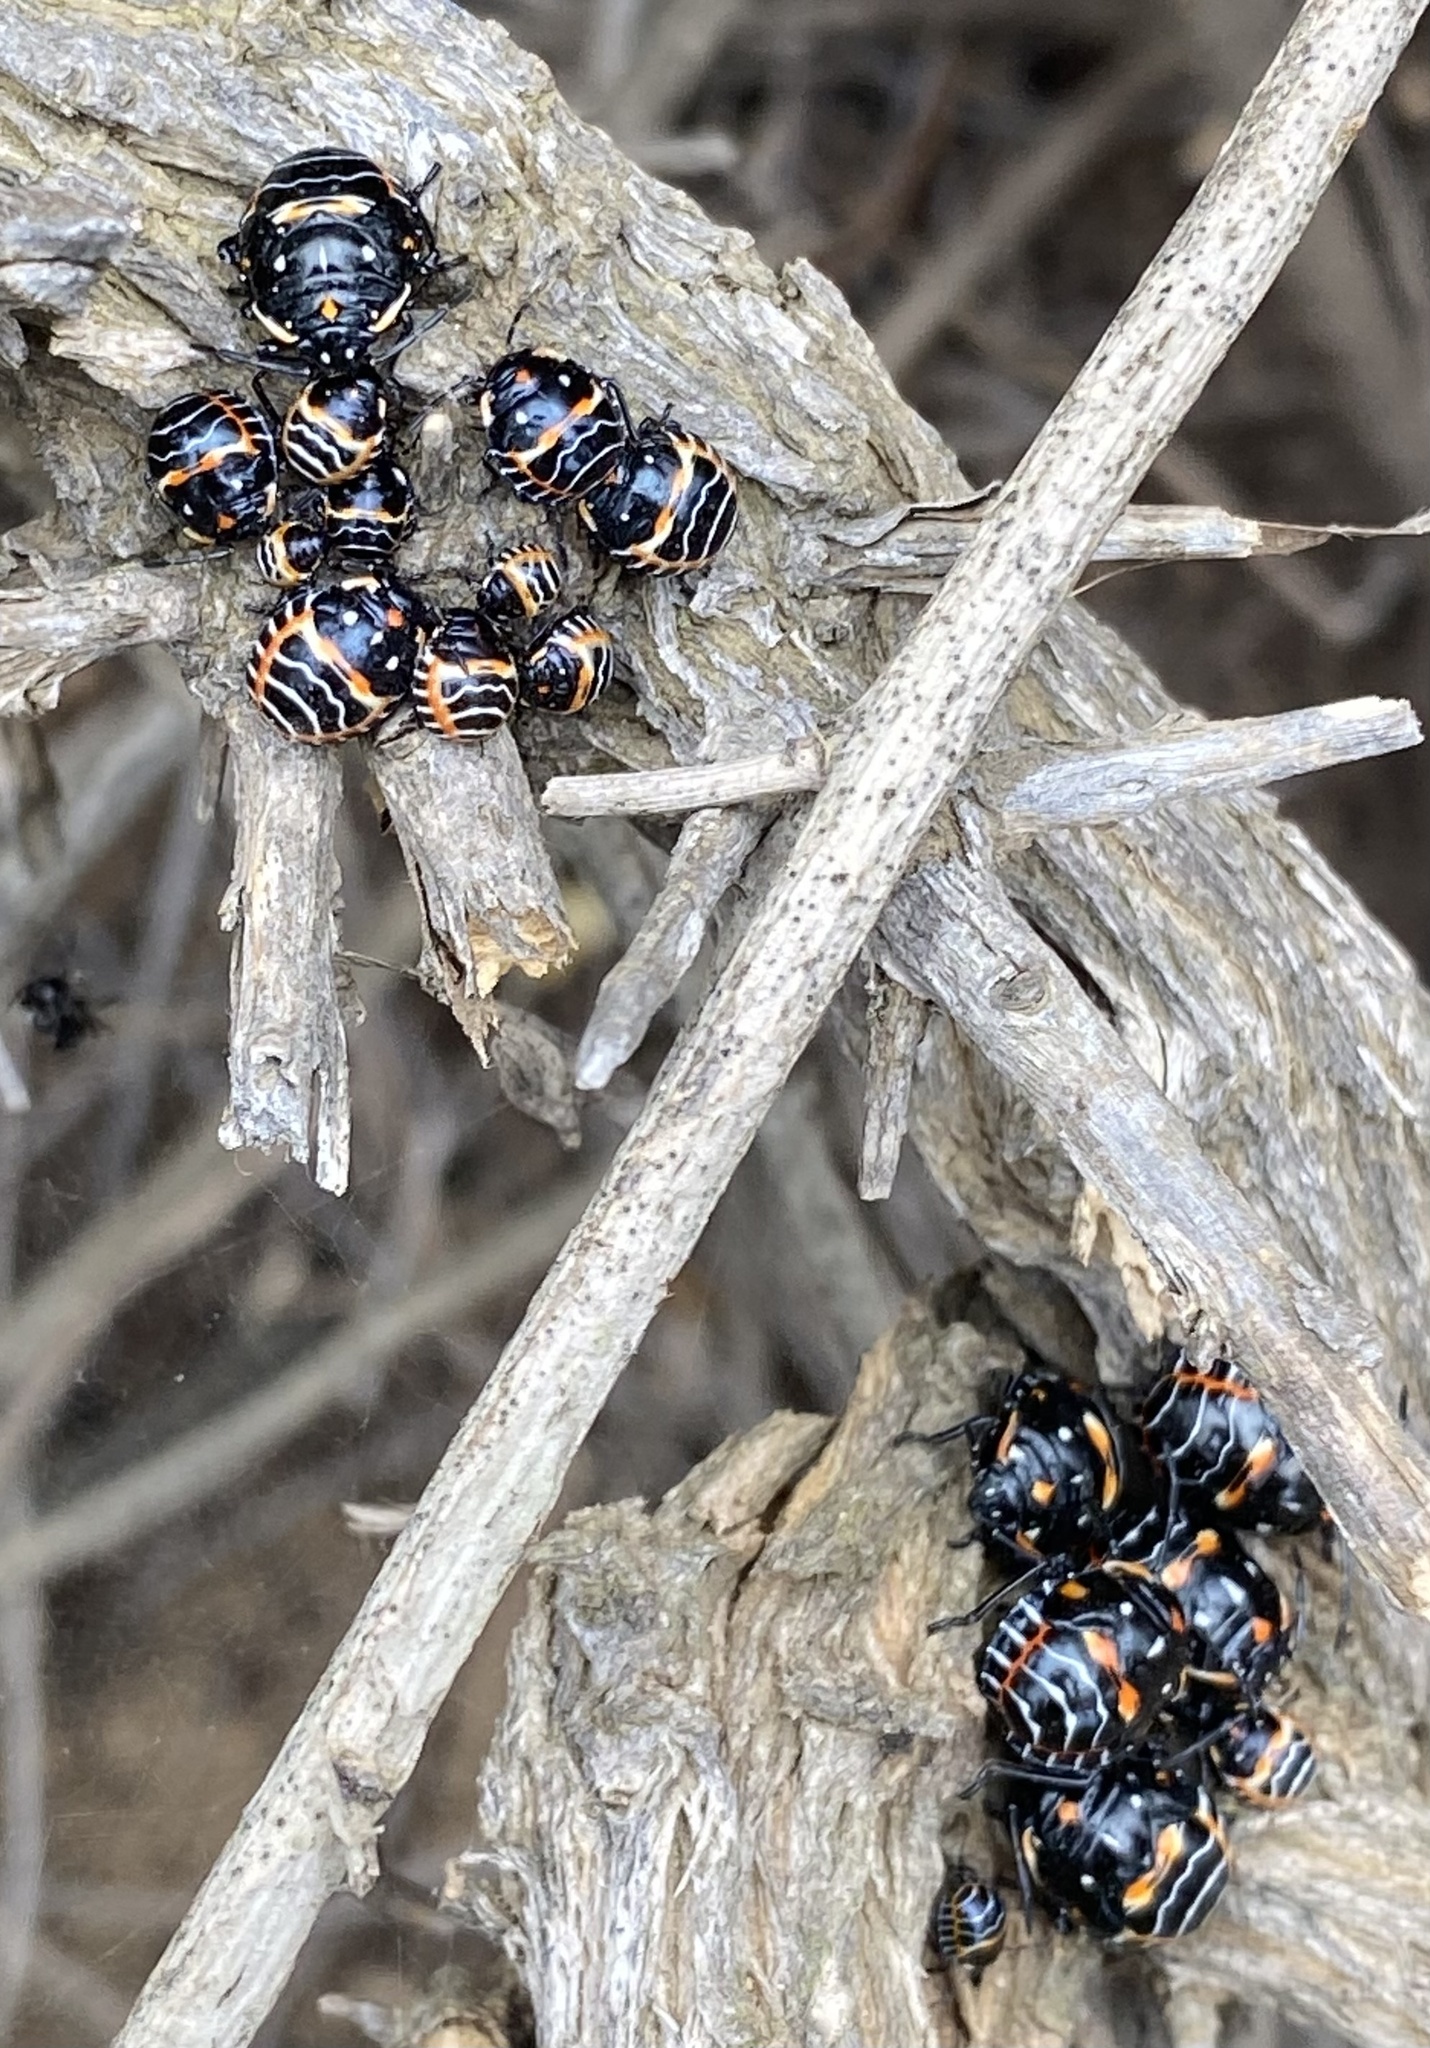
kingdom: Animalia
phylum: Arthropoda
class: Insecta
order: Hemiptera
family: Pentatomidae
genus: Murgantia
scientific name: Murgantia histrionica
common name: Harlequin bug
